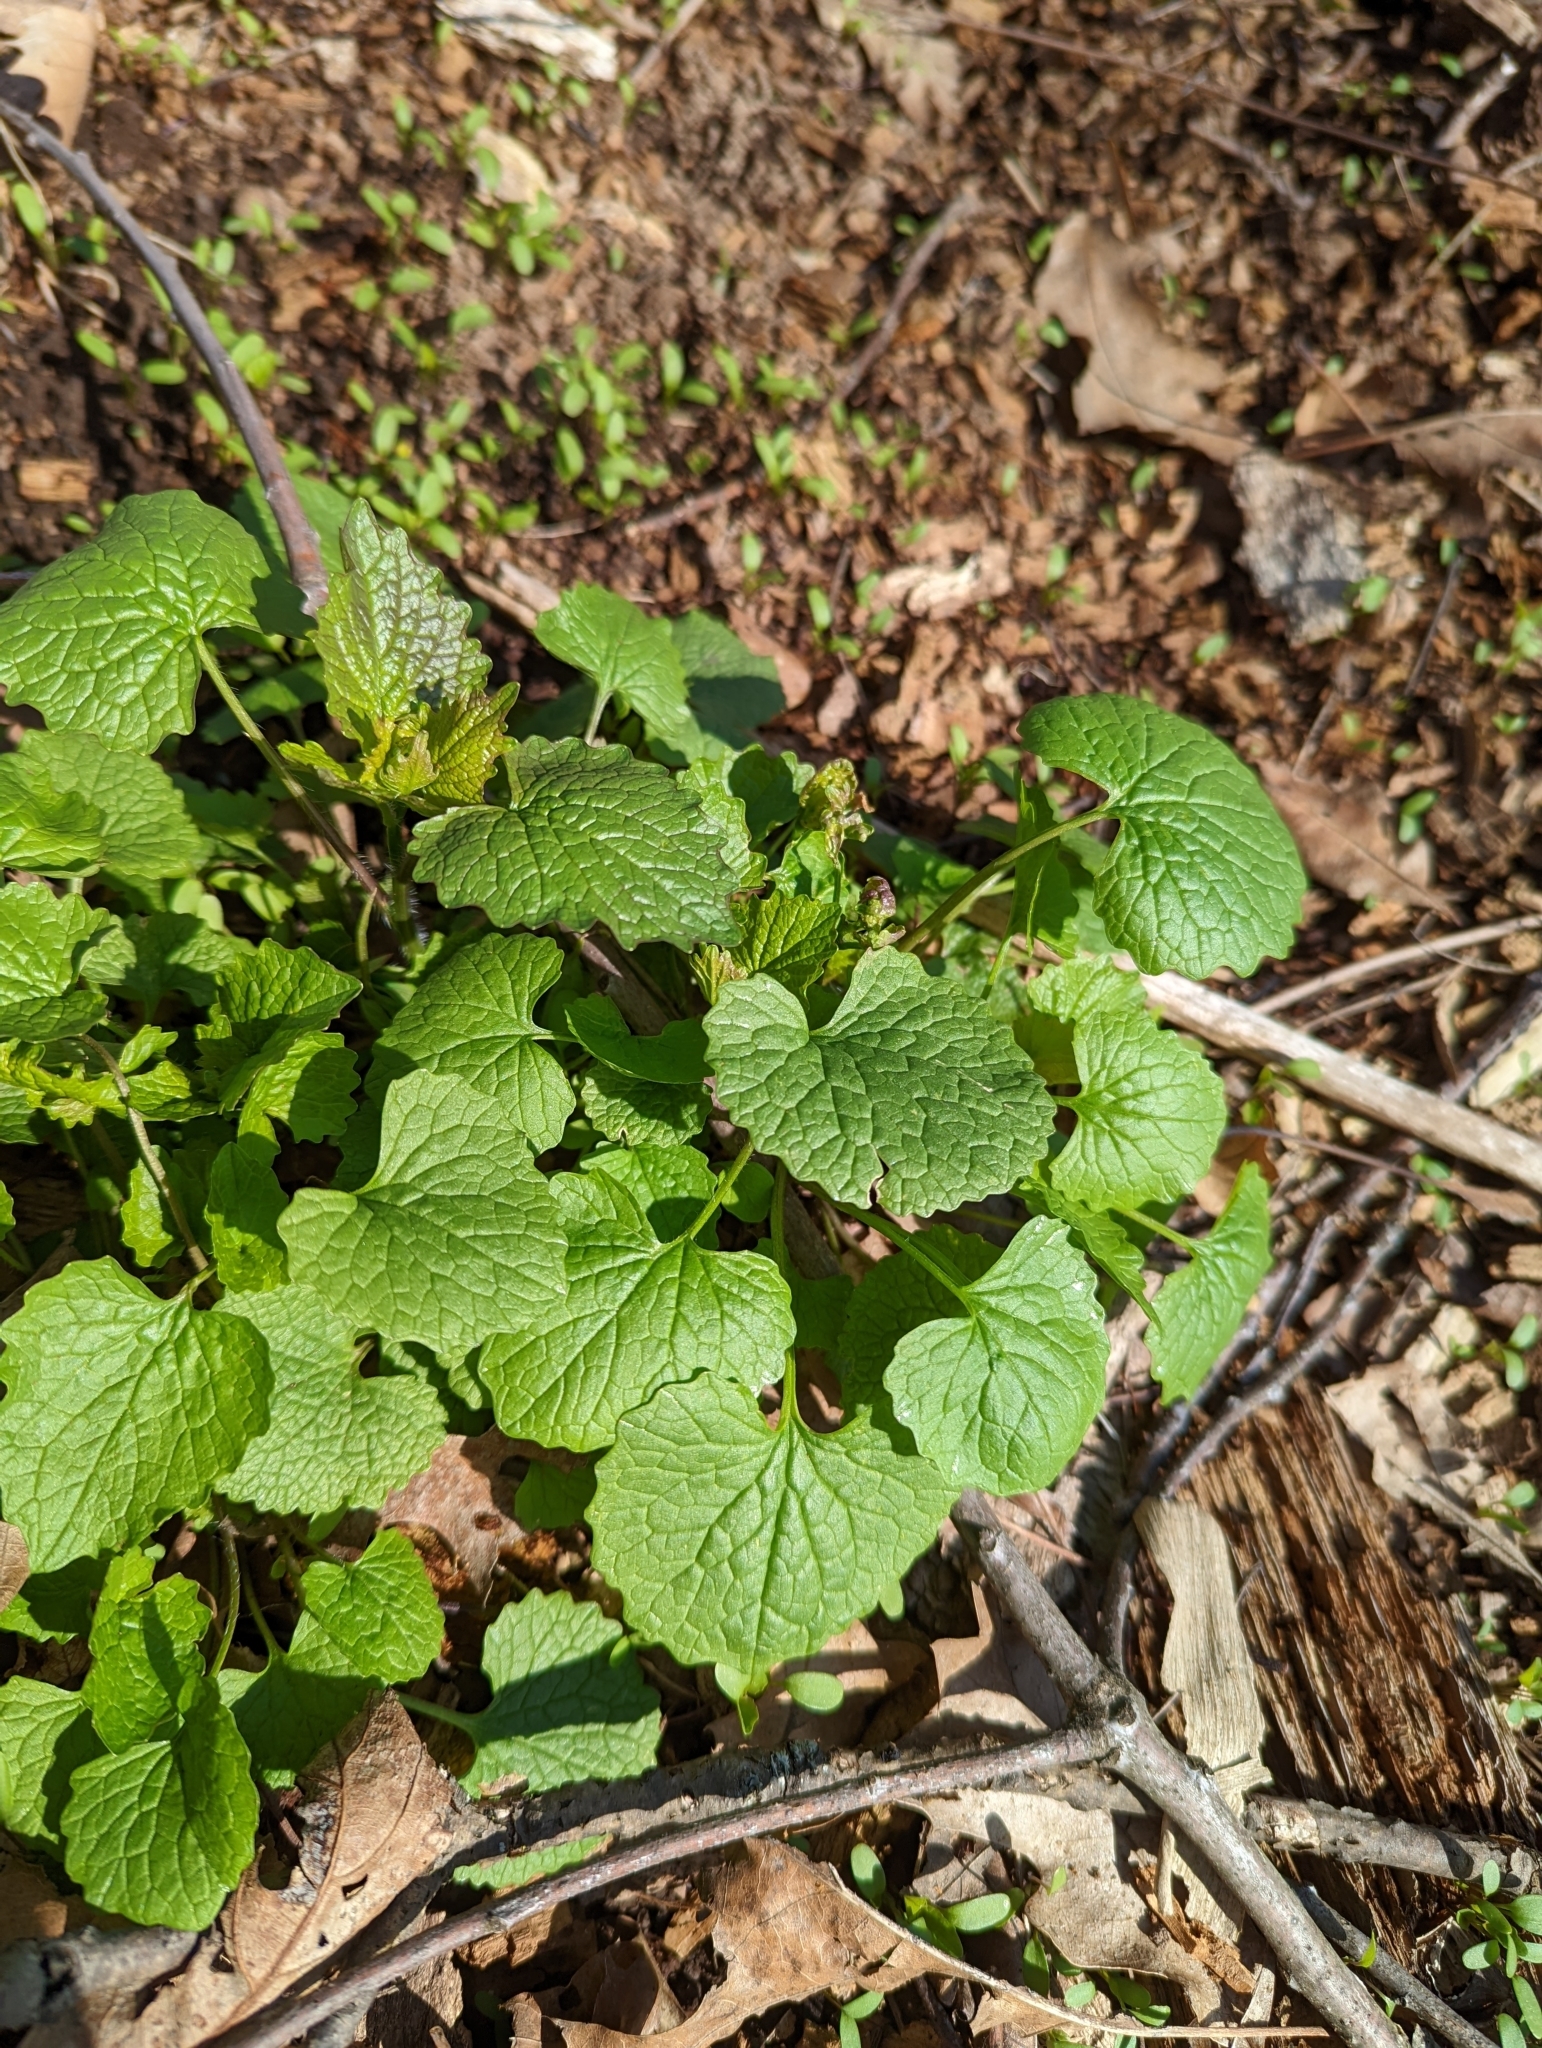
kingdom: Plantae
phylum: Tracheophyta
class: Magnoliopsida
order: Brassicales
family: Brassicaceae
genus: Alliaria
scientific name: Alliaria petiolata
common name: Garlic mustard
